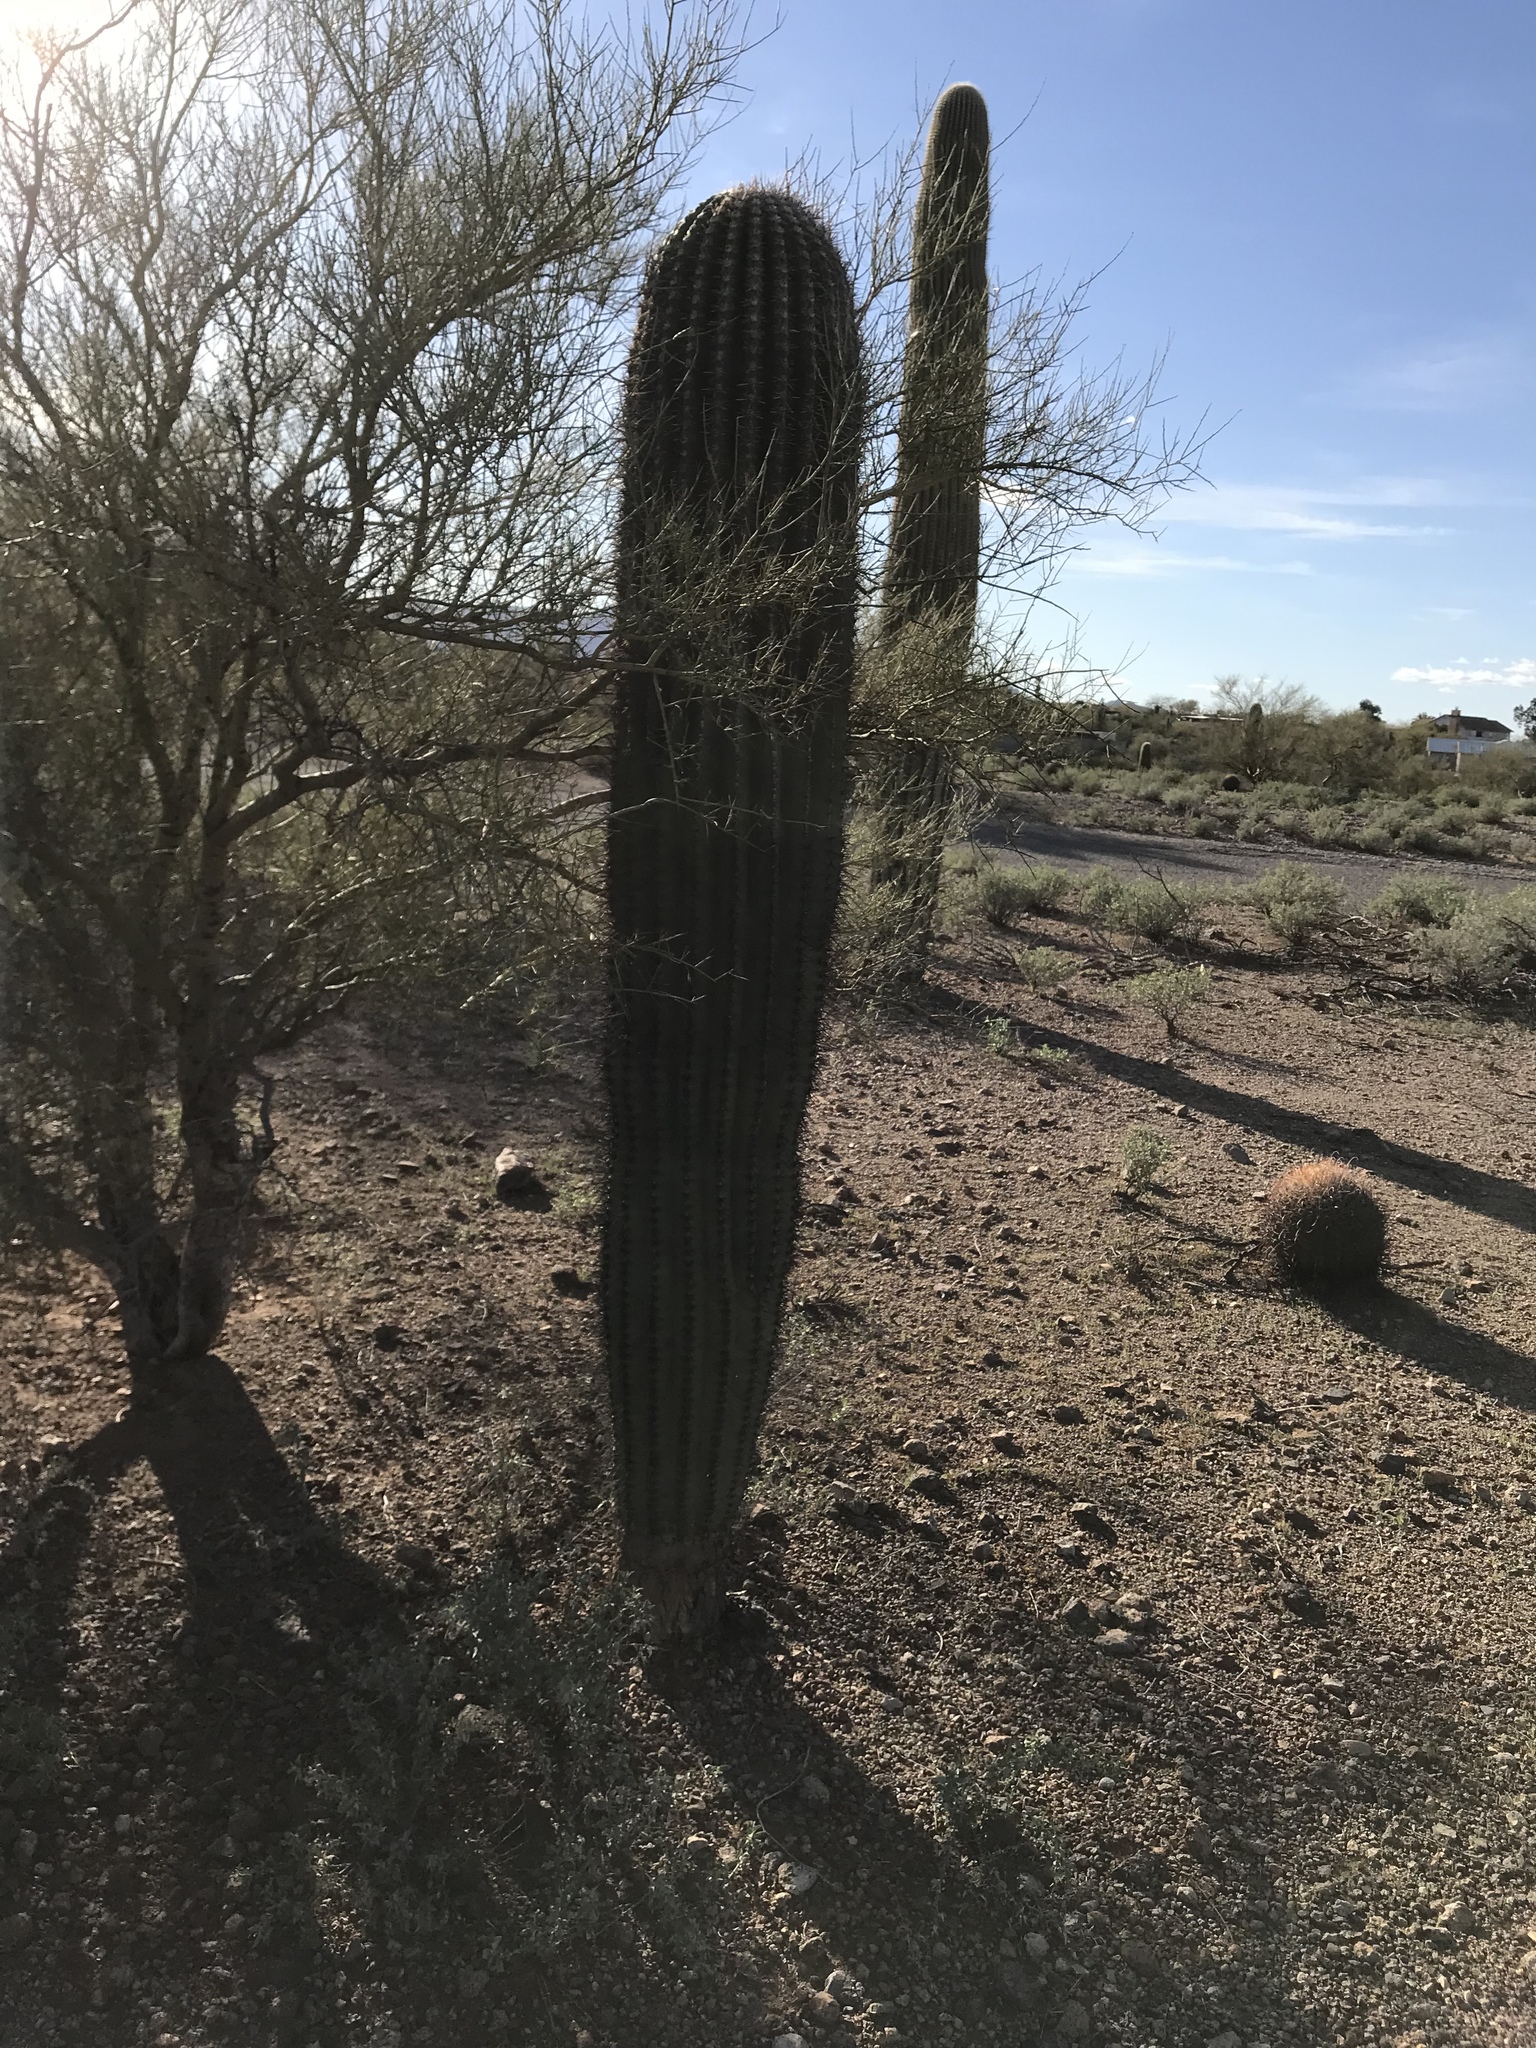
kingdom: Plantae
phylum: Tracheophyta
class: Magnoliopsida
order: Caryophyllales
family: Cactaceae
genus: Carnegiea
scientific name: Carnegiea gigantea
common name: Saguaro
